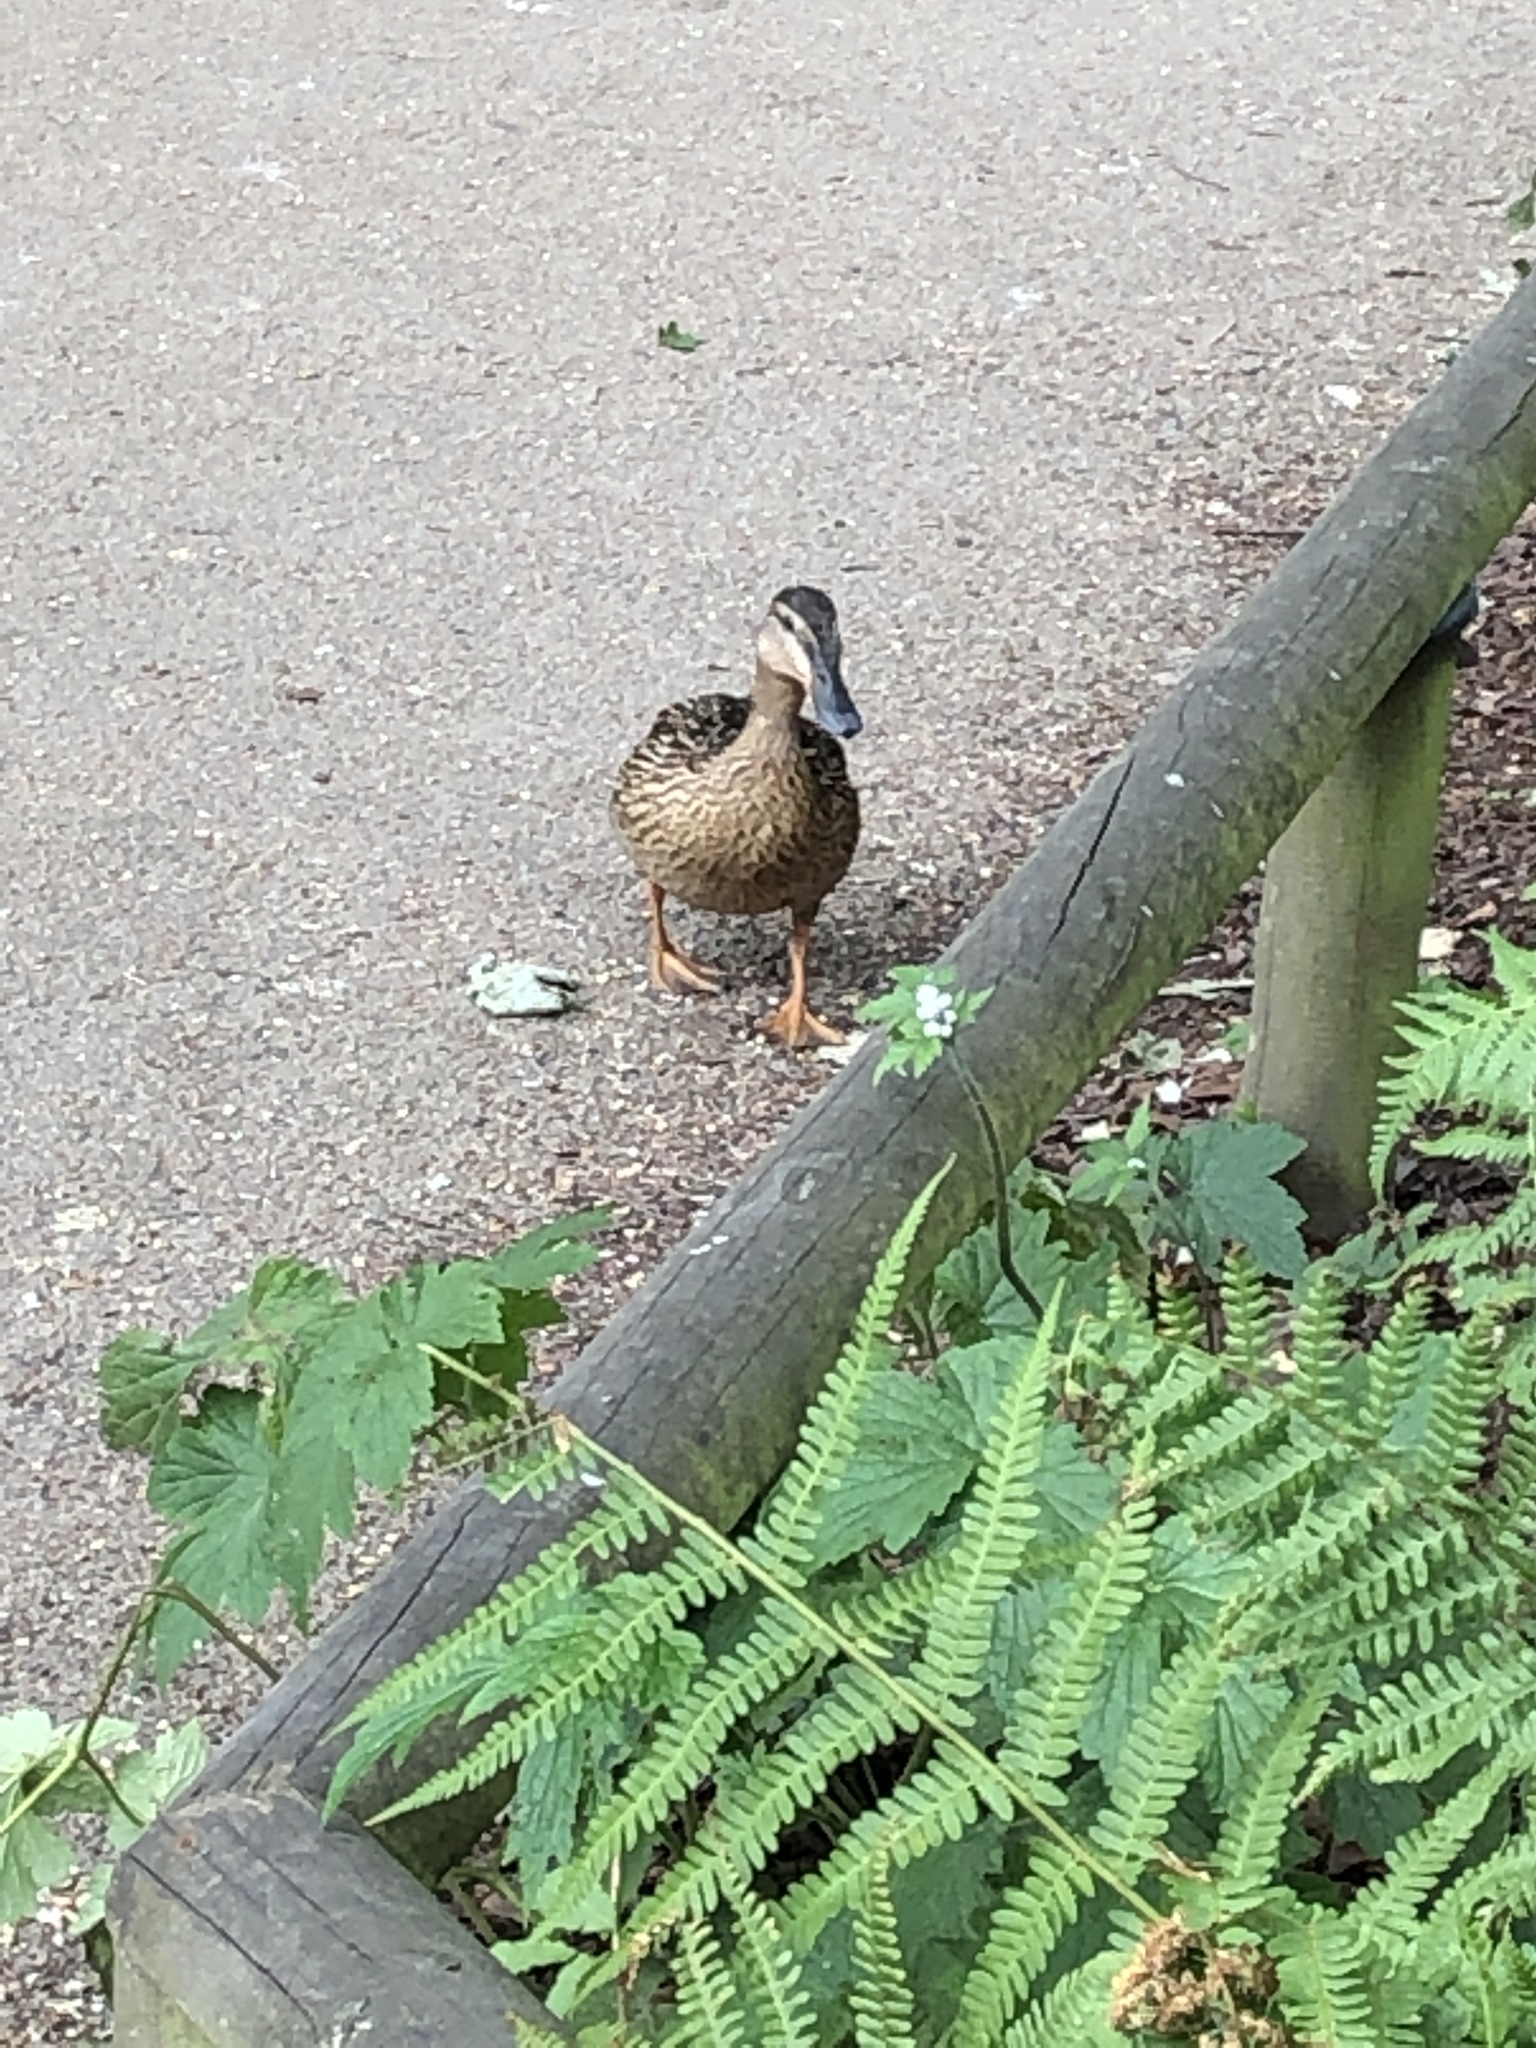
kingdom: Animalia
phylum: Chordata
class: Aves
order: Anseriformes
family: Anatidae
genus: Anas
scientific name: Anas platyrhynchos
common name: Mallard
